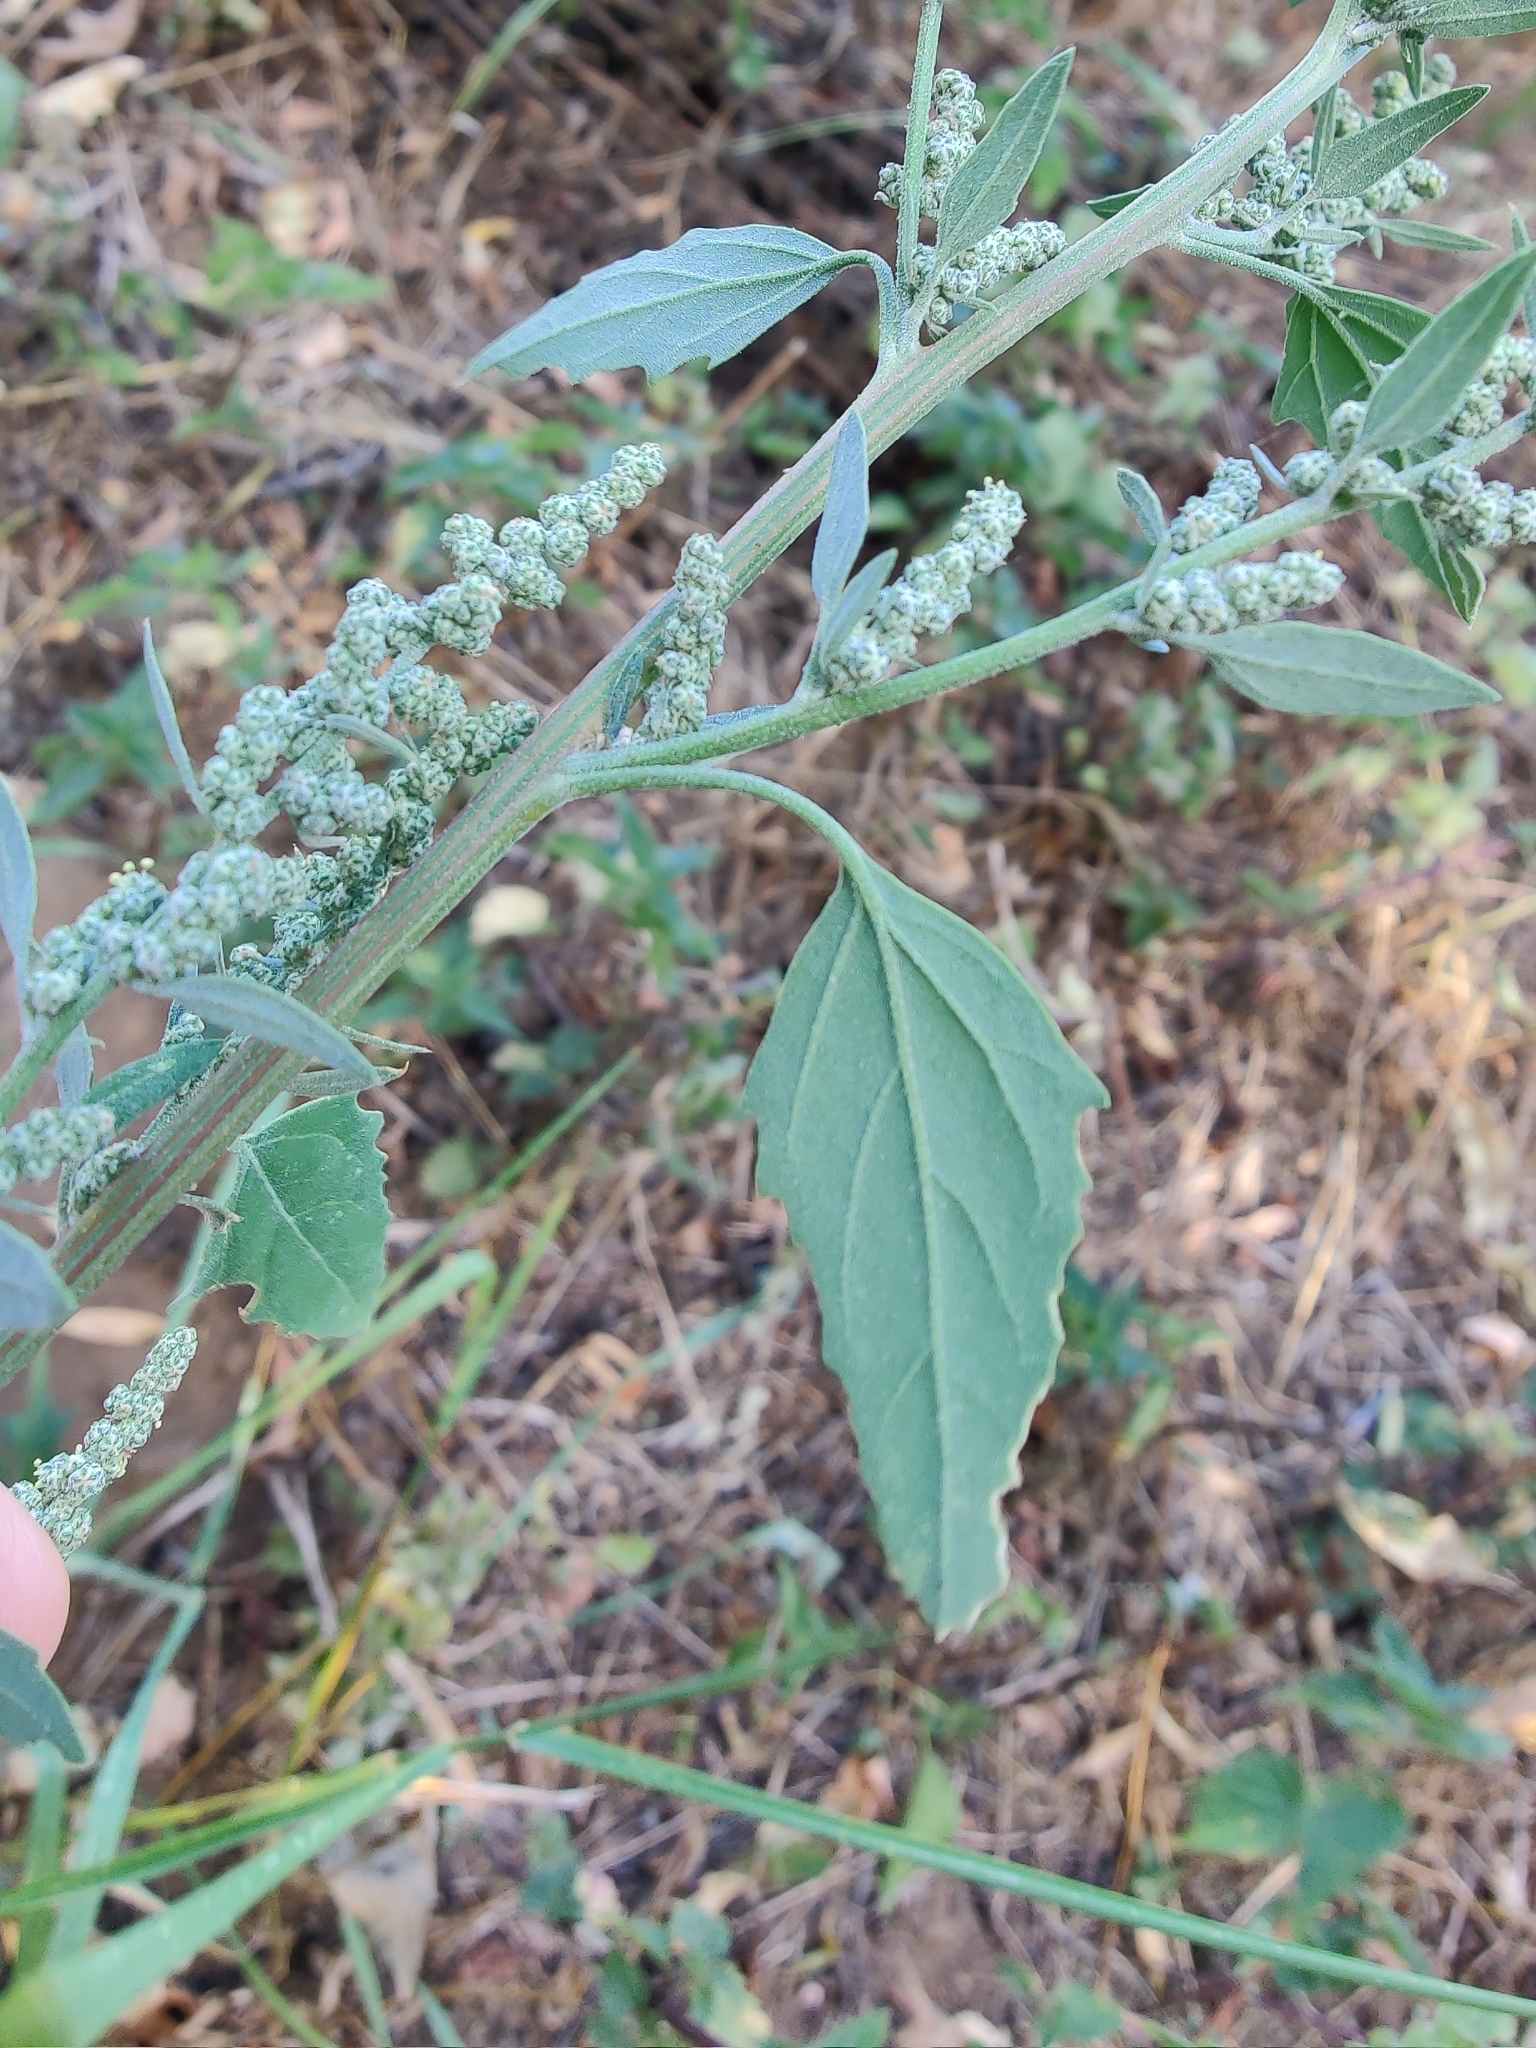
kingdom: Plantae
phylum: Tracheophyta
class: Magnoliopsida
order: Caryophyllales
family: Amaranthaceae
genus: Chenopodium
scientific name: Chenopodium album
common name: Fat-hen
